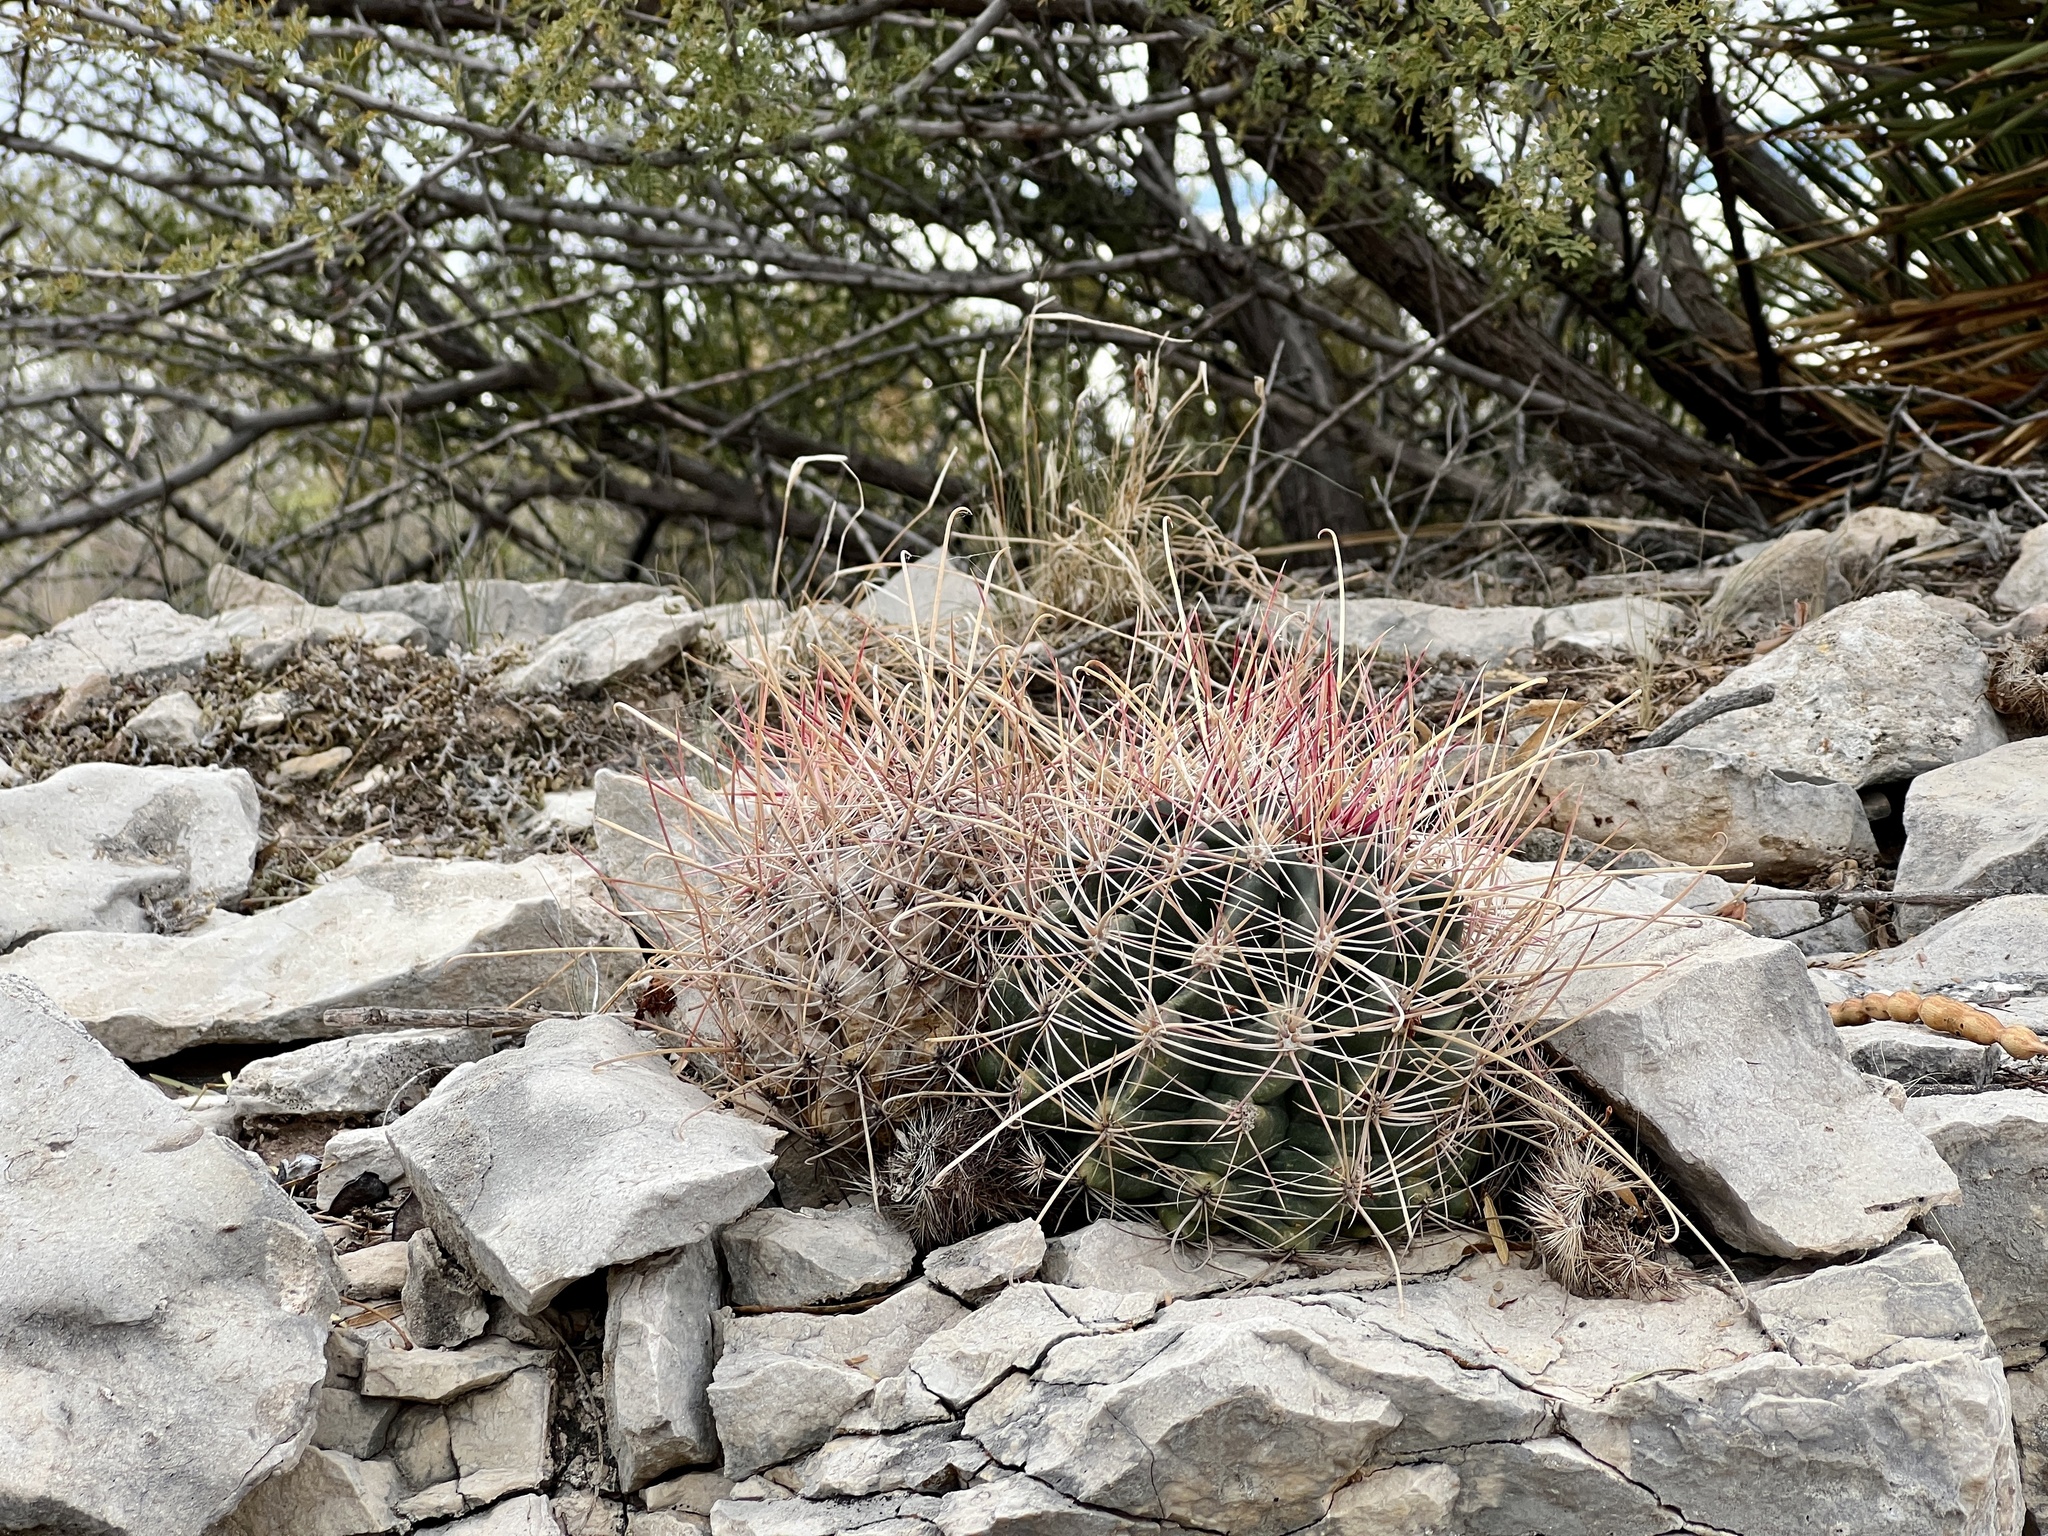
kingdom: Plantae
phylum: Tracheophyta
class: Magnoliopsida
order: Caryophyllales
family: Cactaceae
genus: Bisnaga
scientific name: Bisnaga hamatacantha
